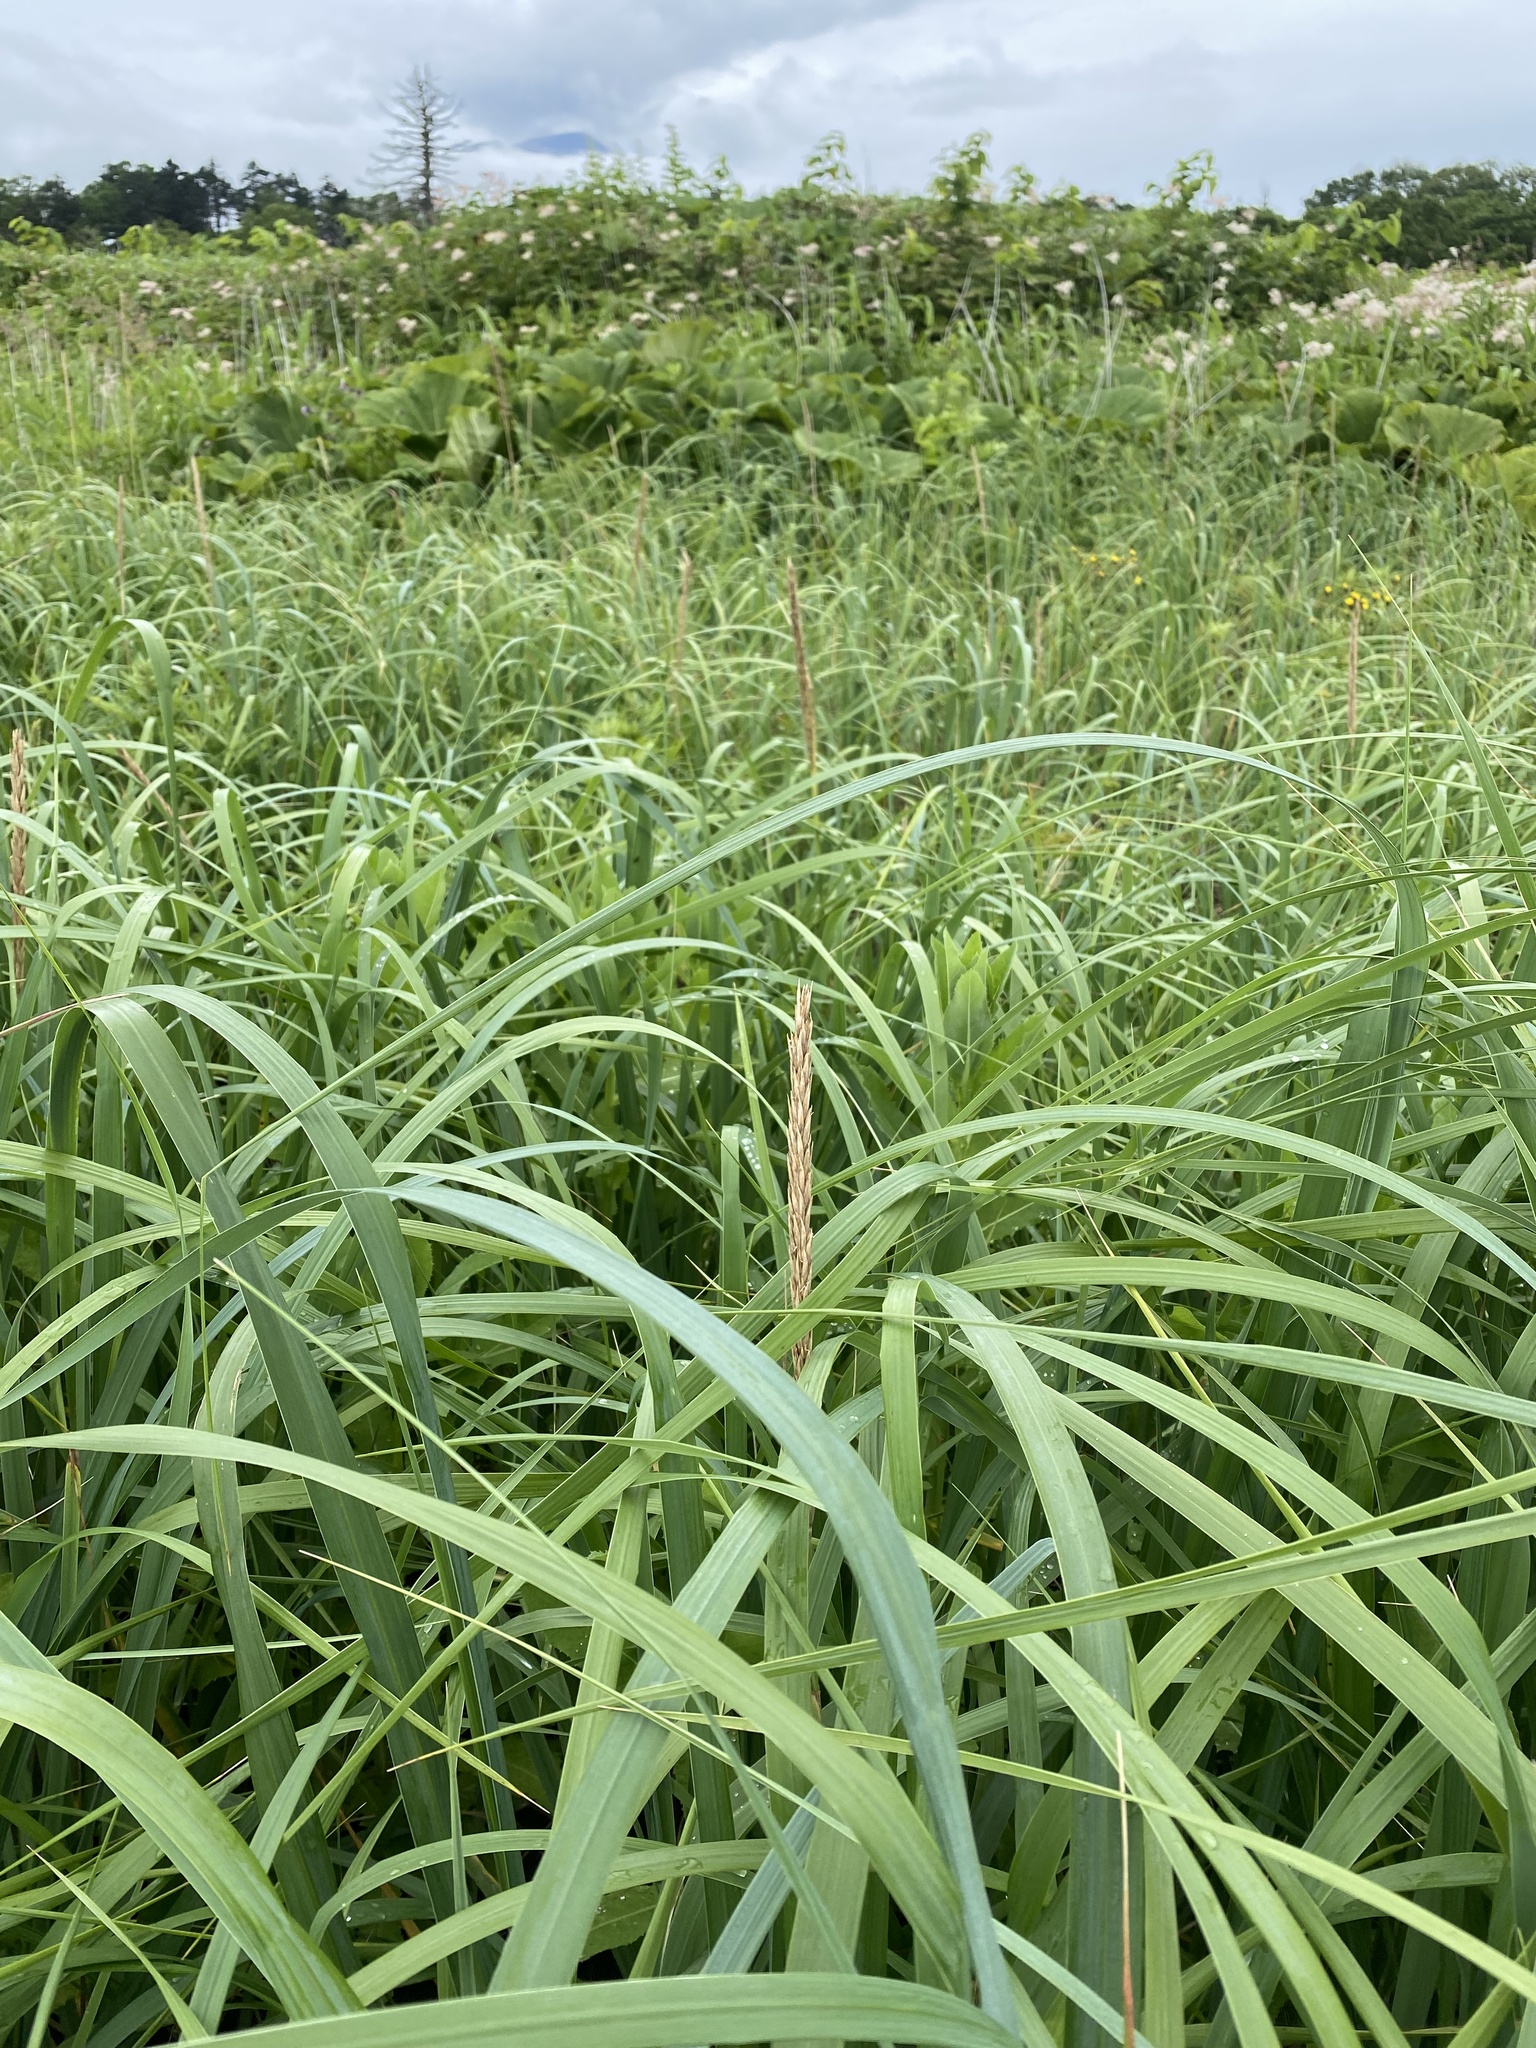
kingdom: Plantae
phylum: Tracheophyta
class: Liliopsida
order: Poales
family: Poaceae
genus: Leymus
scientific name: Leymus mollis
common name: American dune grass
